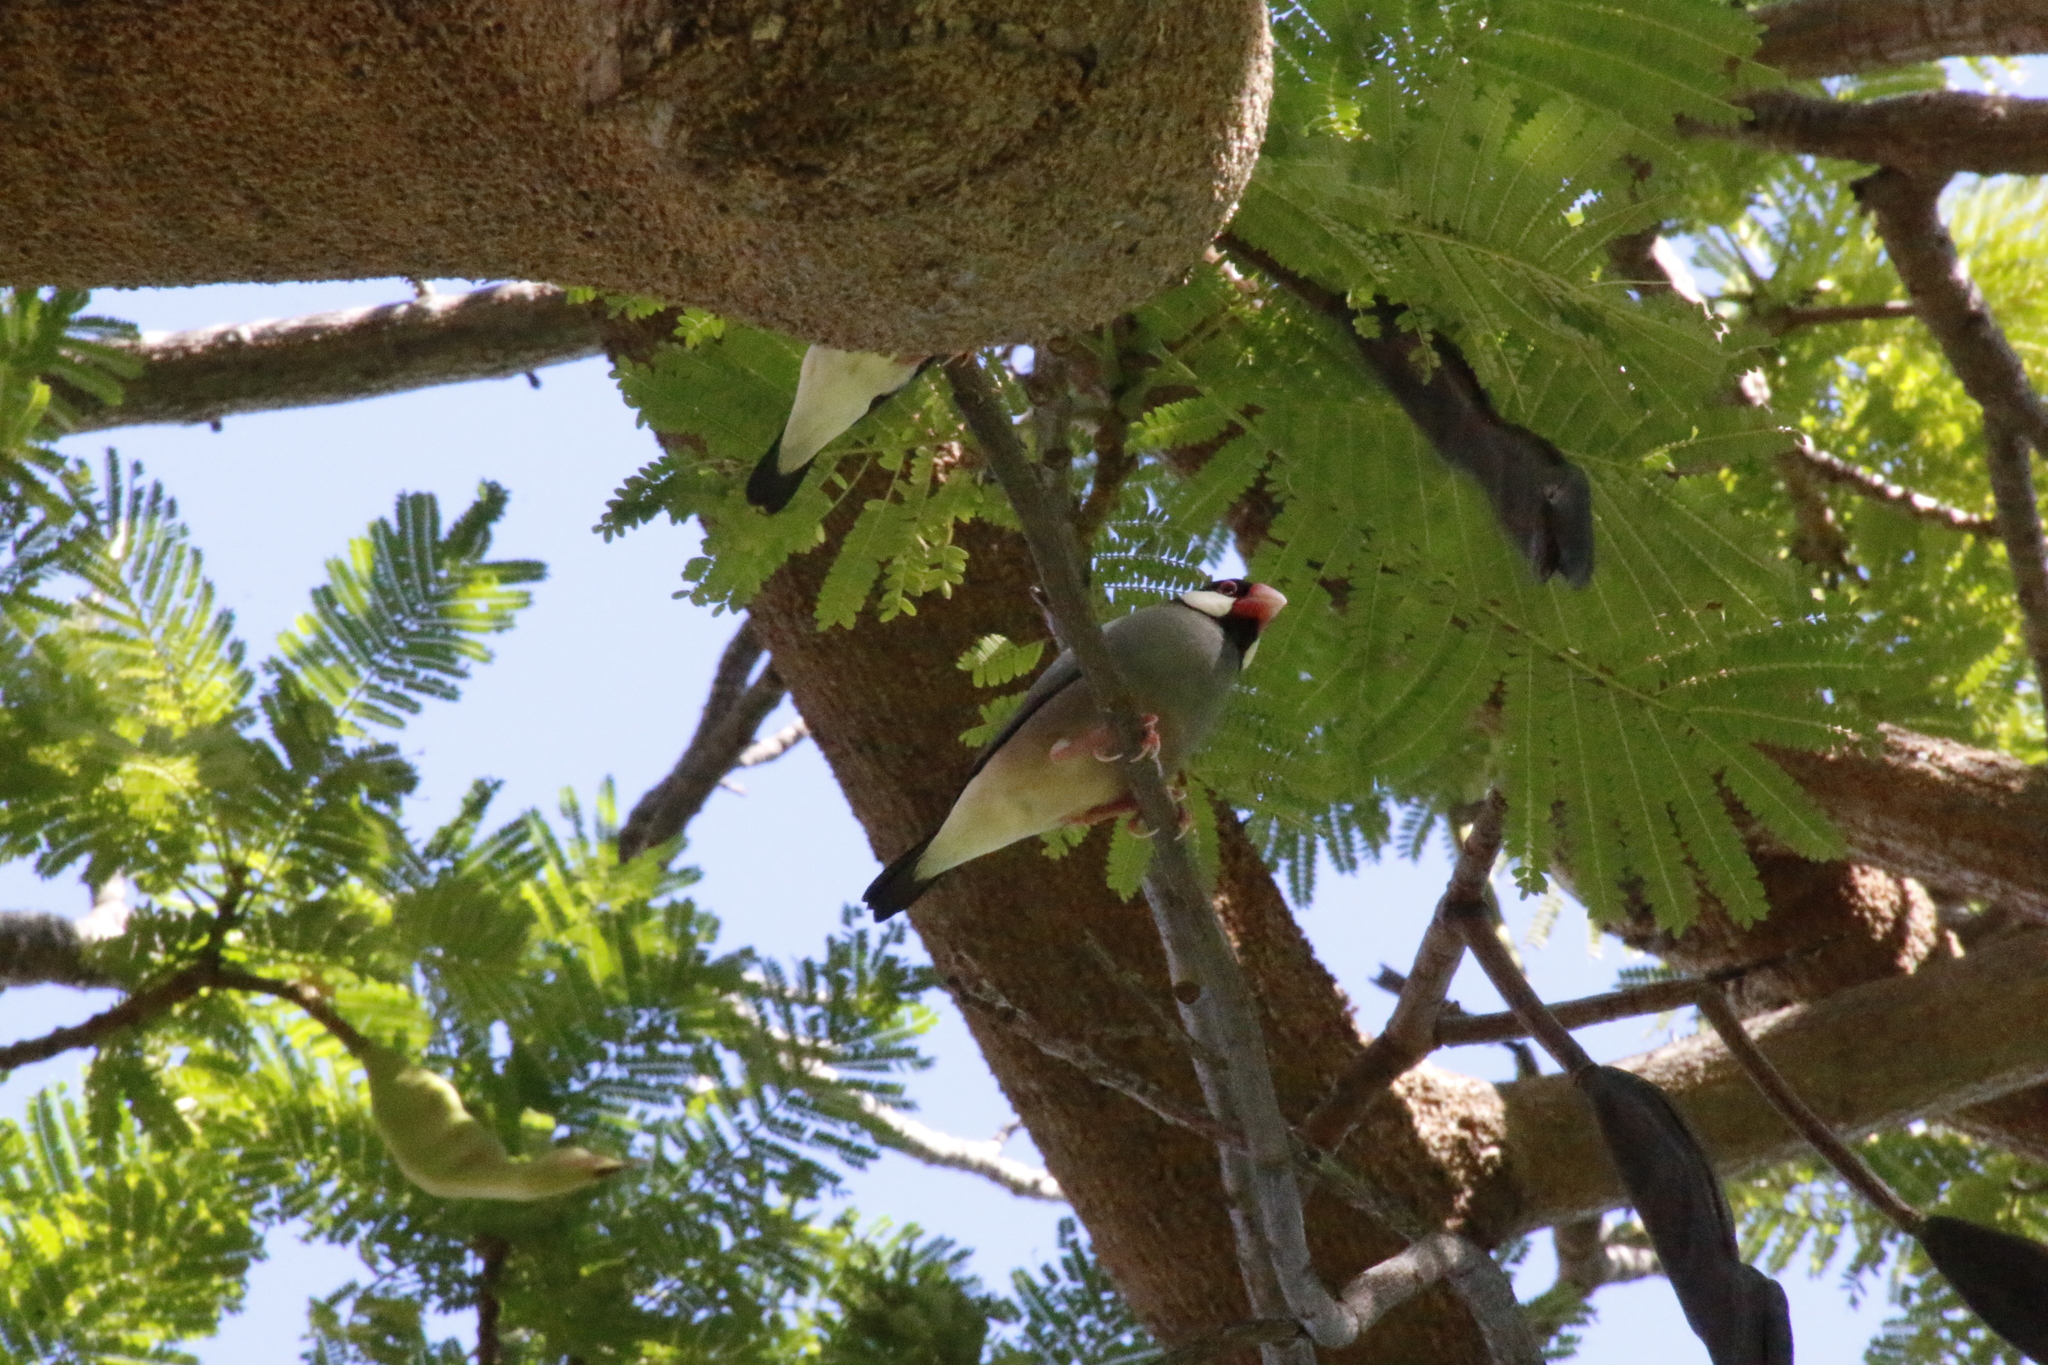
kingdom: Animalia
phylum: Chordata
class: Aves
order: Passeriformes
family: Estrildidae
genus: Lonchura
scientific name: Lonchura oryzivora
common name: Java sparrow
